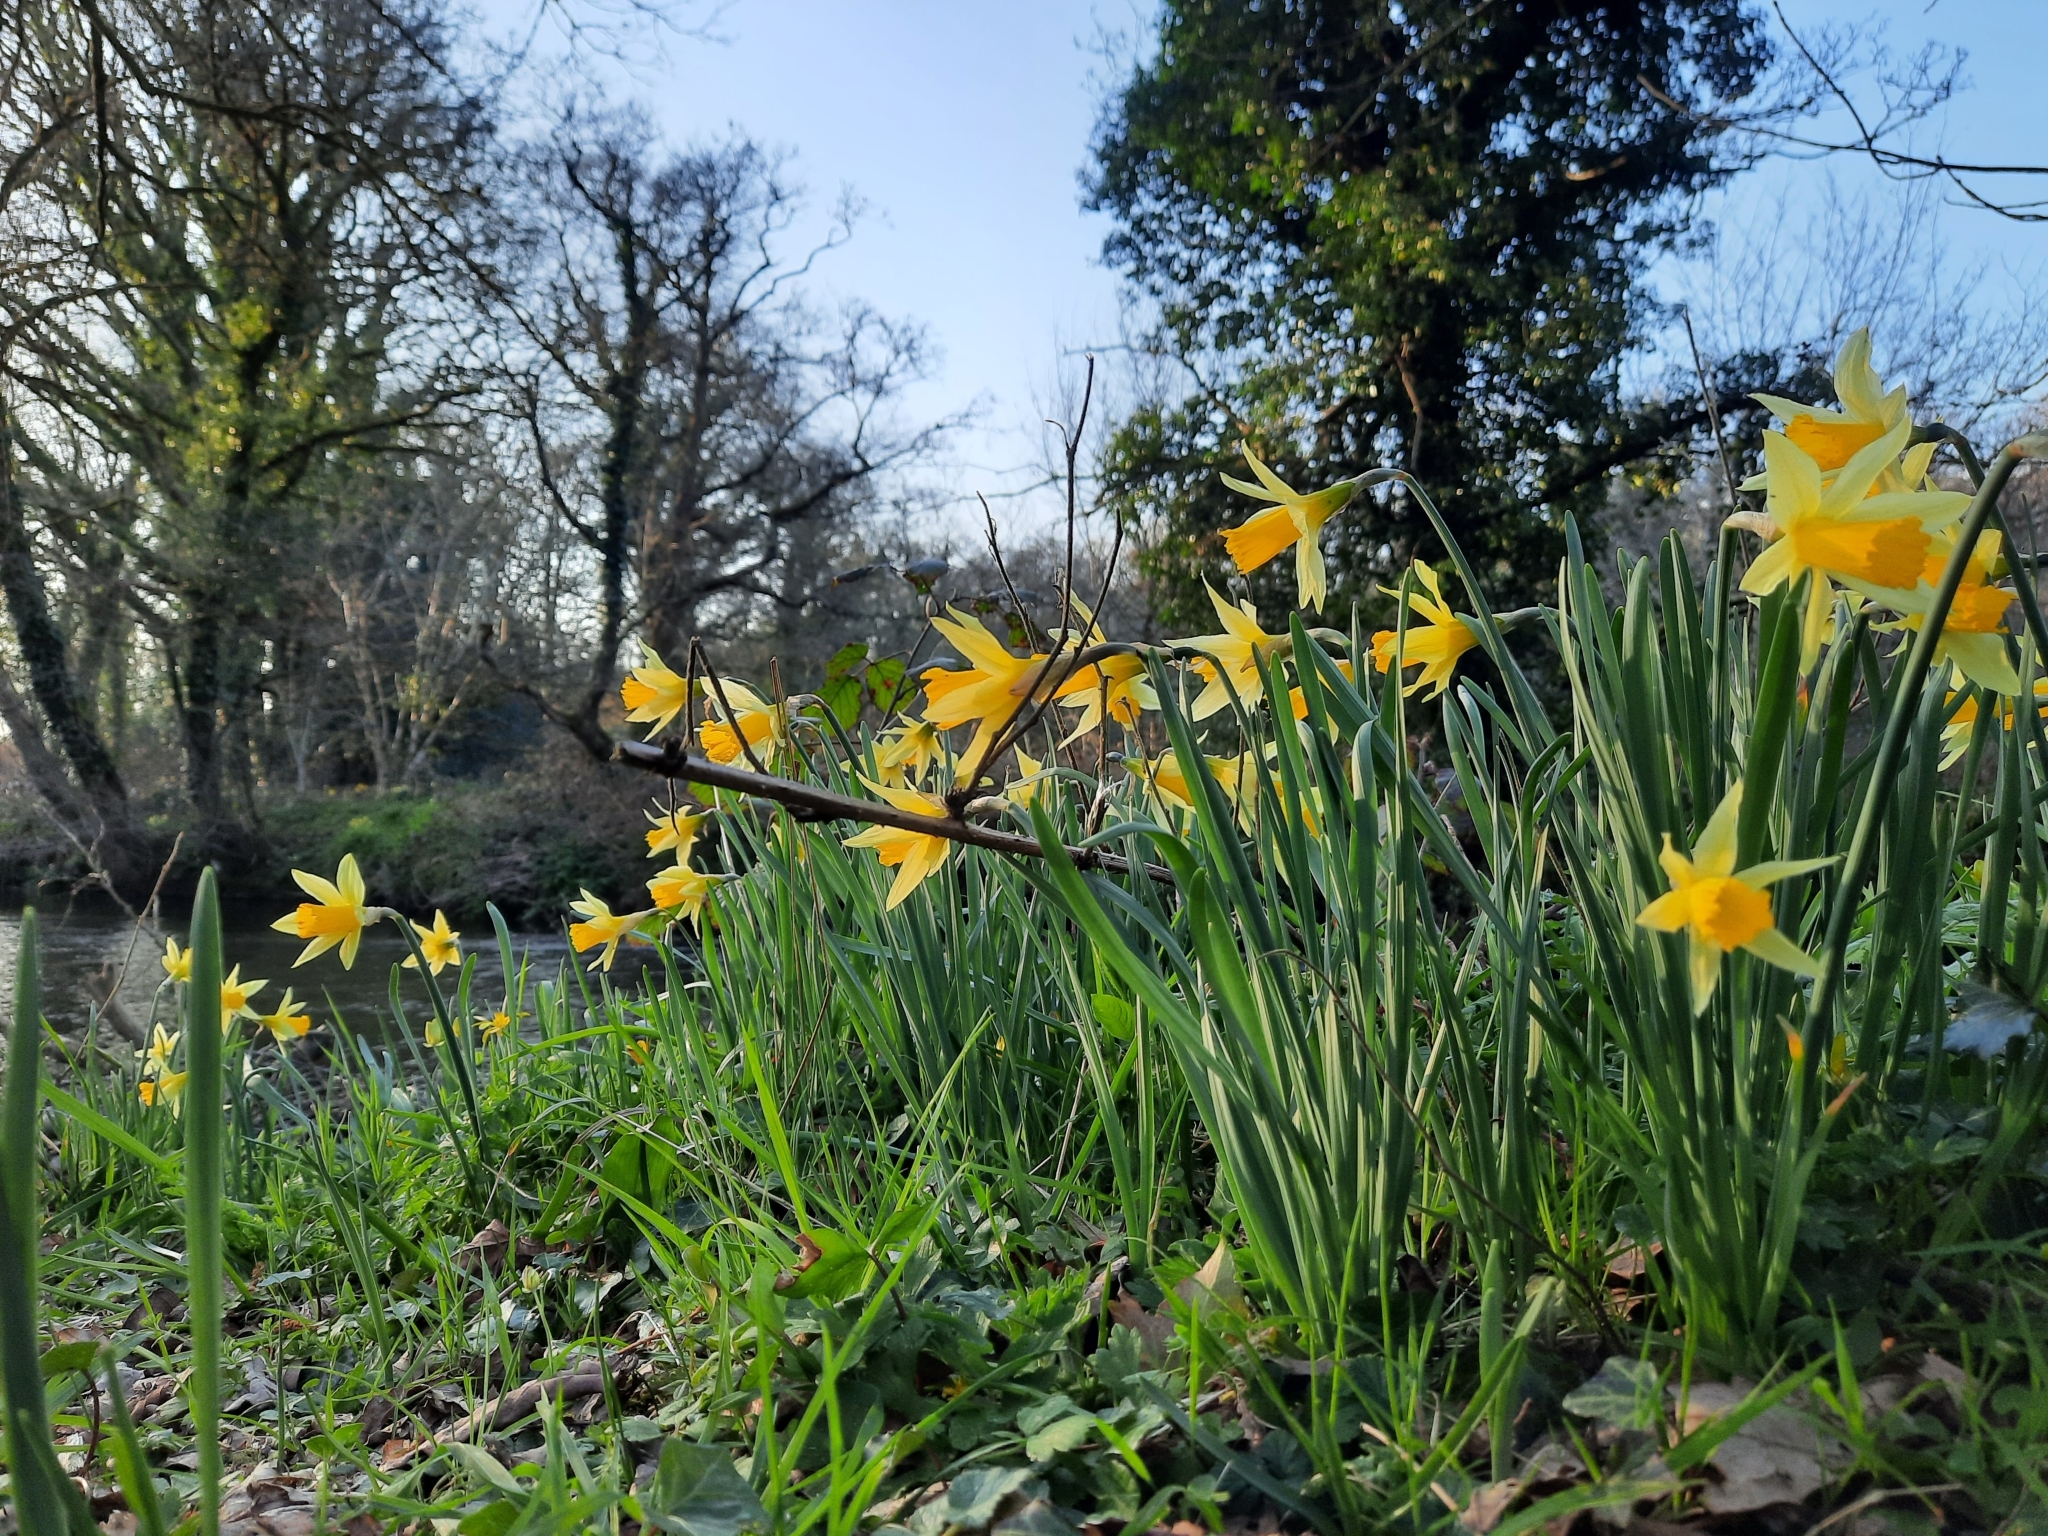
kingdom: Plantae
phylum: Tracheophyta
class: Liliopsida
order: Asparagales
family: Amaryllidaceae
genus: Narcissus
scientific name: Narcissus pseudonarcissus
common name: Daffodil
